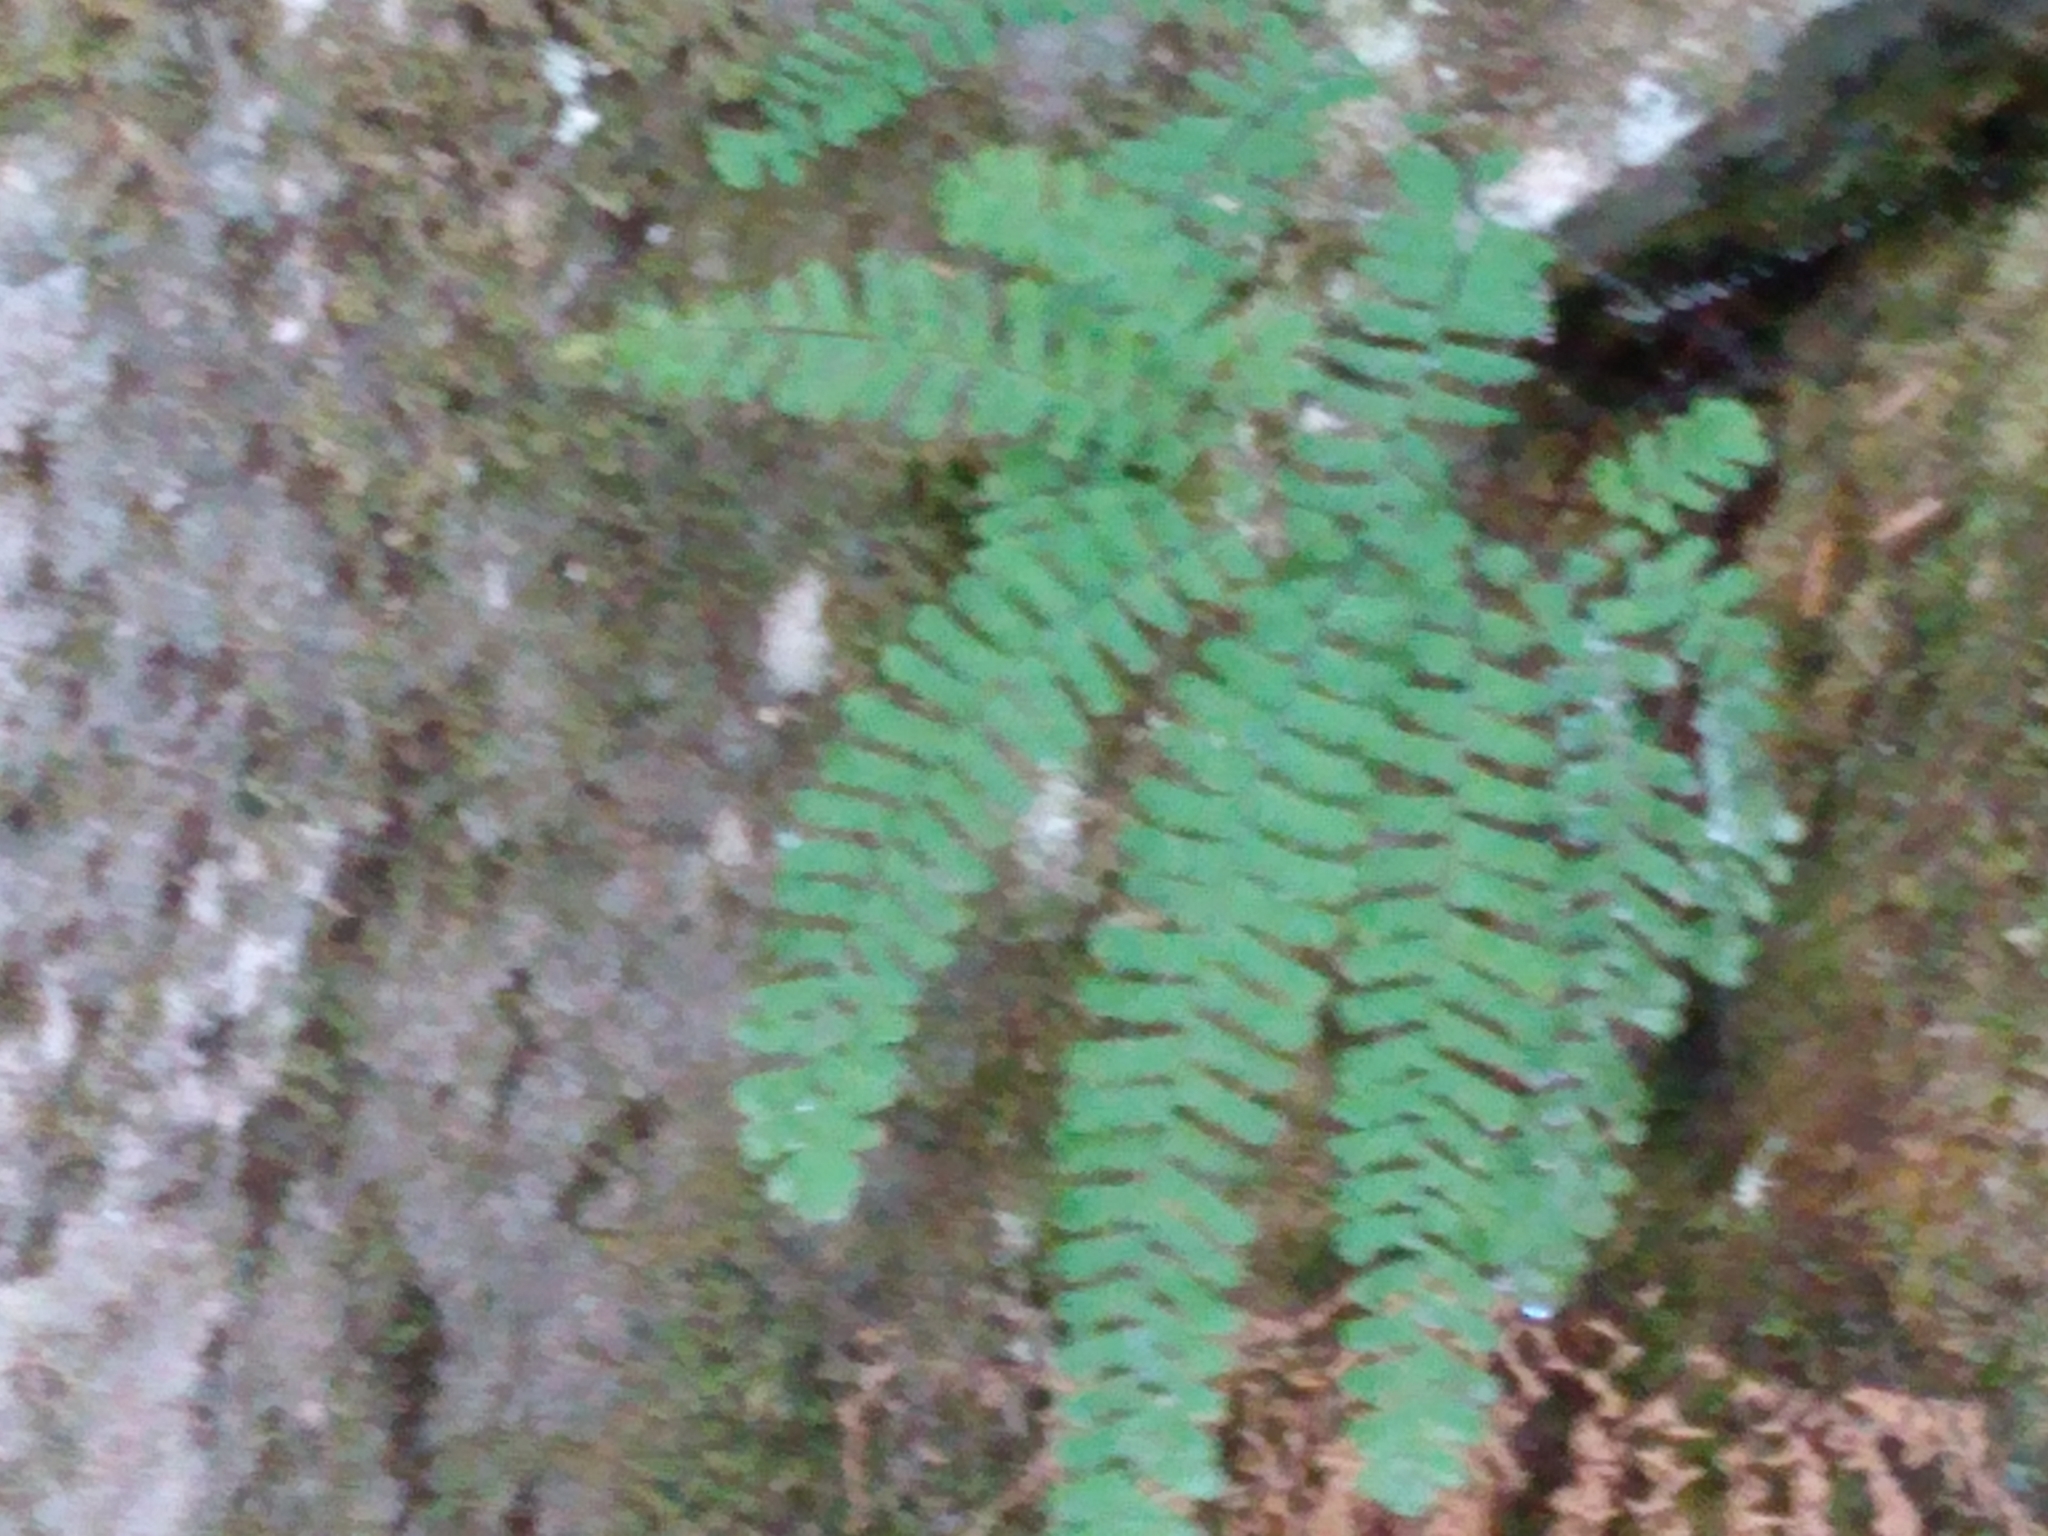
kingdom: Plantae
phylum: Tracheophyta
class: Polypodiopsida
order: Polypodiales
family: Pteridaceae
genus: Adiantum
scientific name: Adiantum aleuticum
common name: Aleutian maidenhair fern
